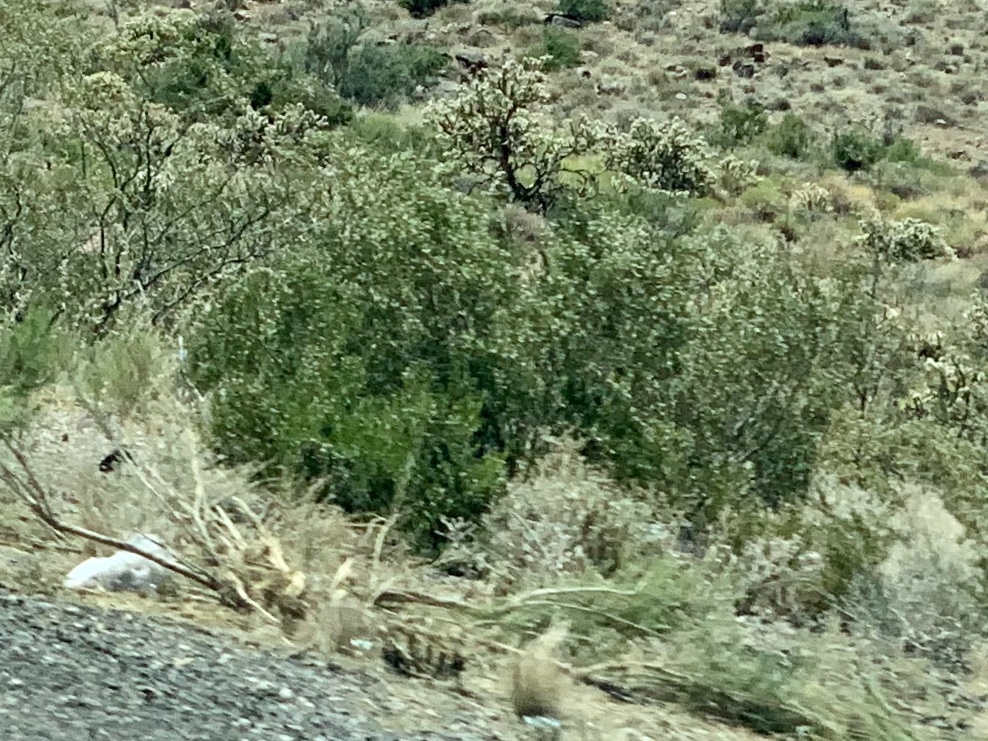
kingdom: Plantae
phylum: Tracheophyta
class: Magnoliopsida
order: Zygophyllales
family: Zygophyllaceae
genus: Larrea
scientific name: Larrea tridentata
